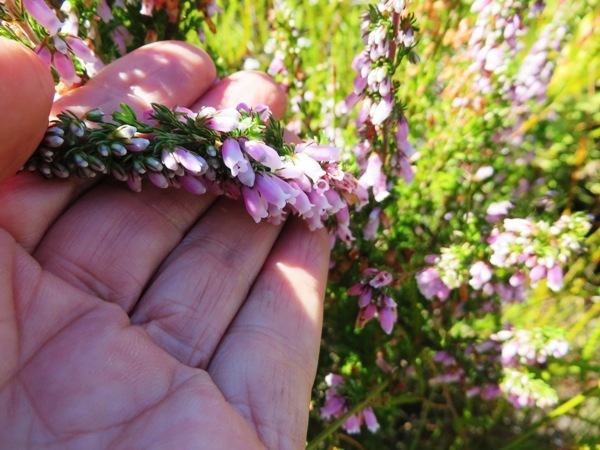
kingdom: Plantae
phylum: Tracheophyta
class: Magnoliopsida
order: Ericales
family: Ericaceae
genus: Erica
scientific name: Erica sitiens
